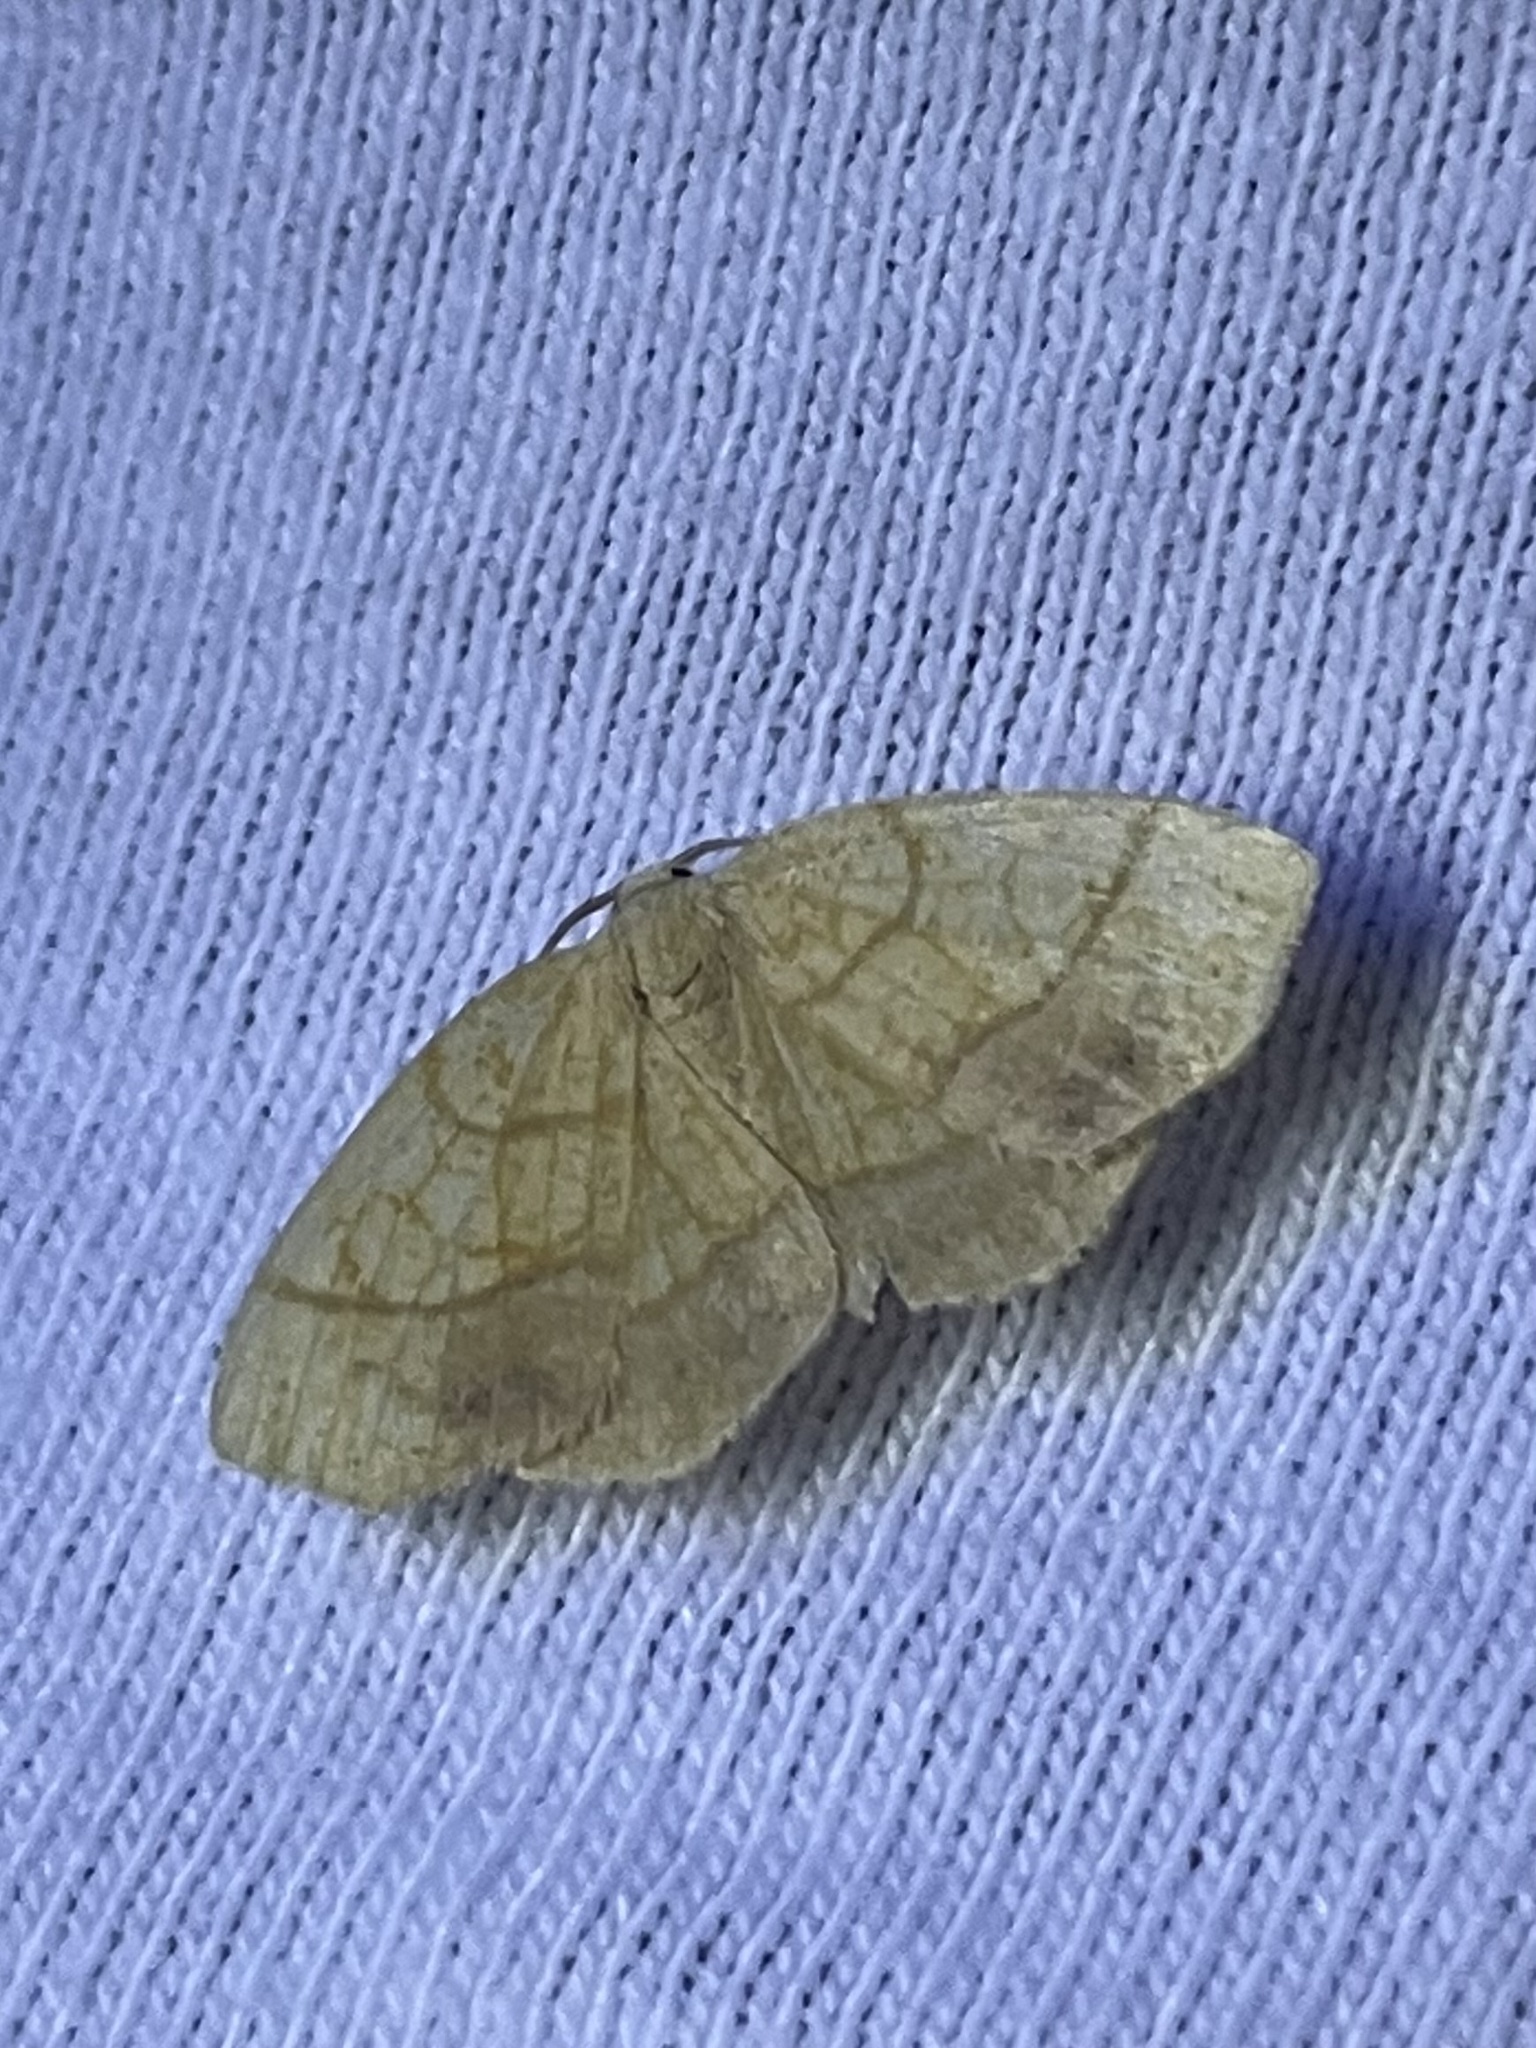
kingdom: Animalia
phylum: Arthropoda
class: Insecta
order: Lepidoptera
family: Geometridae
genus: Nematocampa
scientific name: Nematocampa resistaria
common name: Horned spanworm moth
